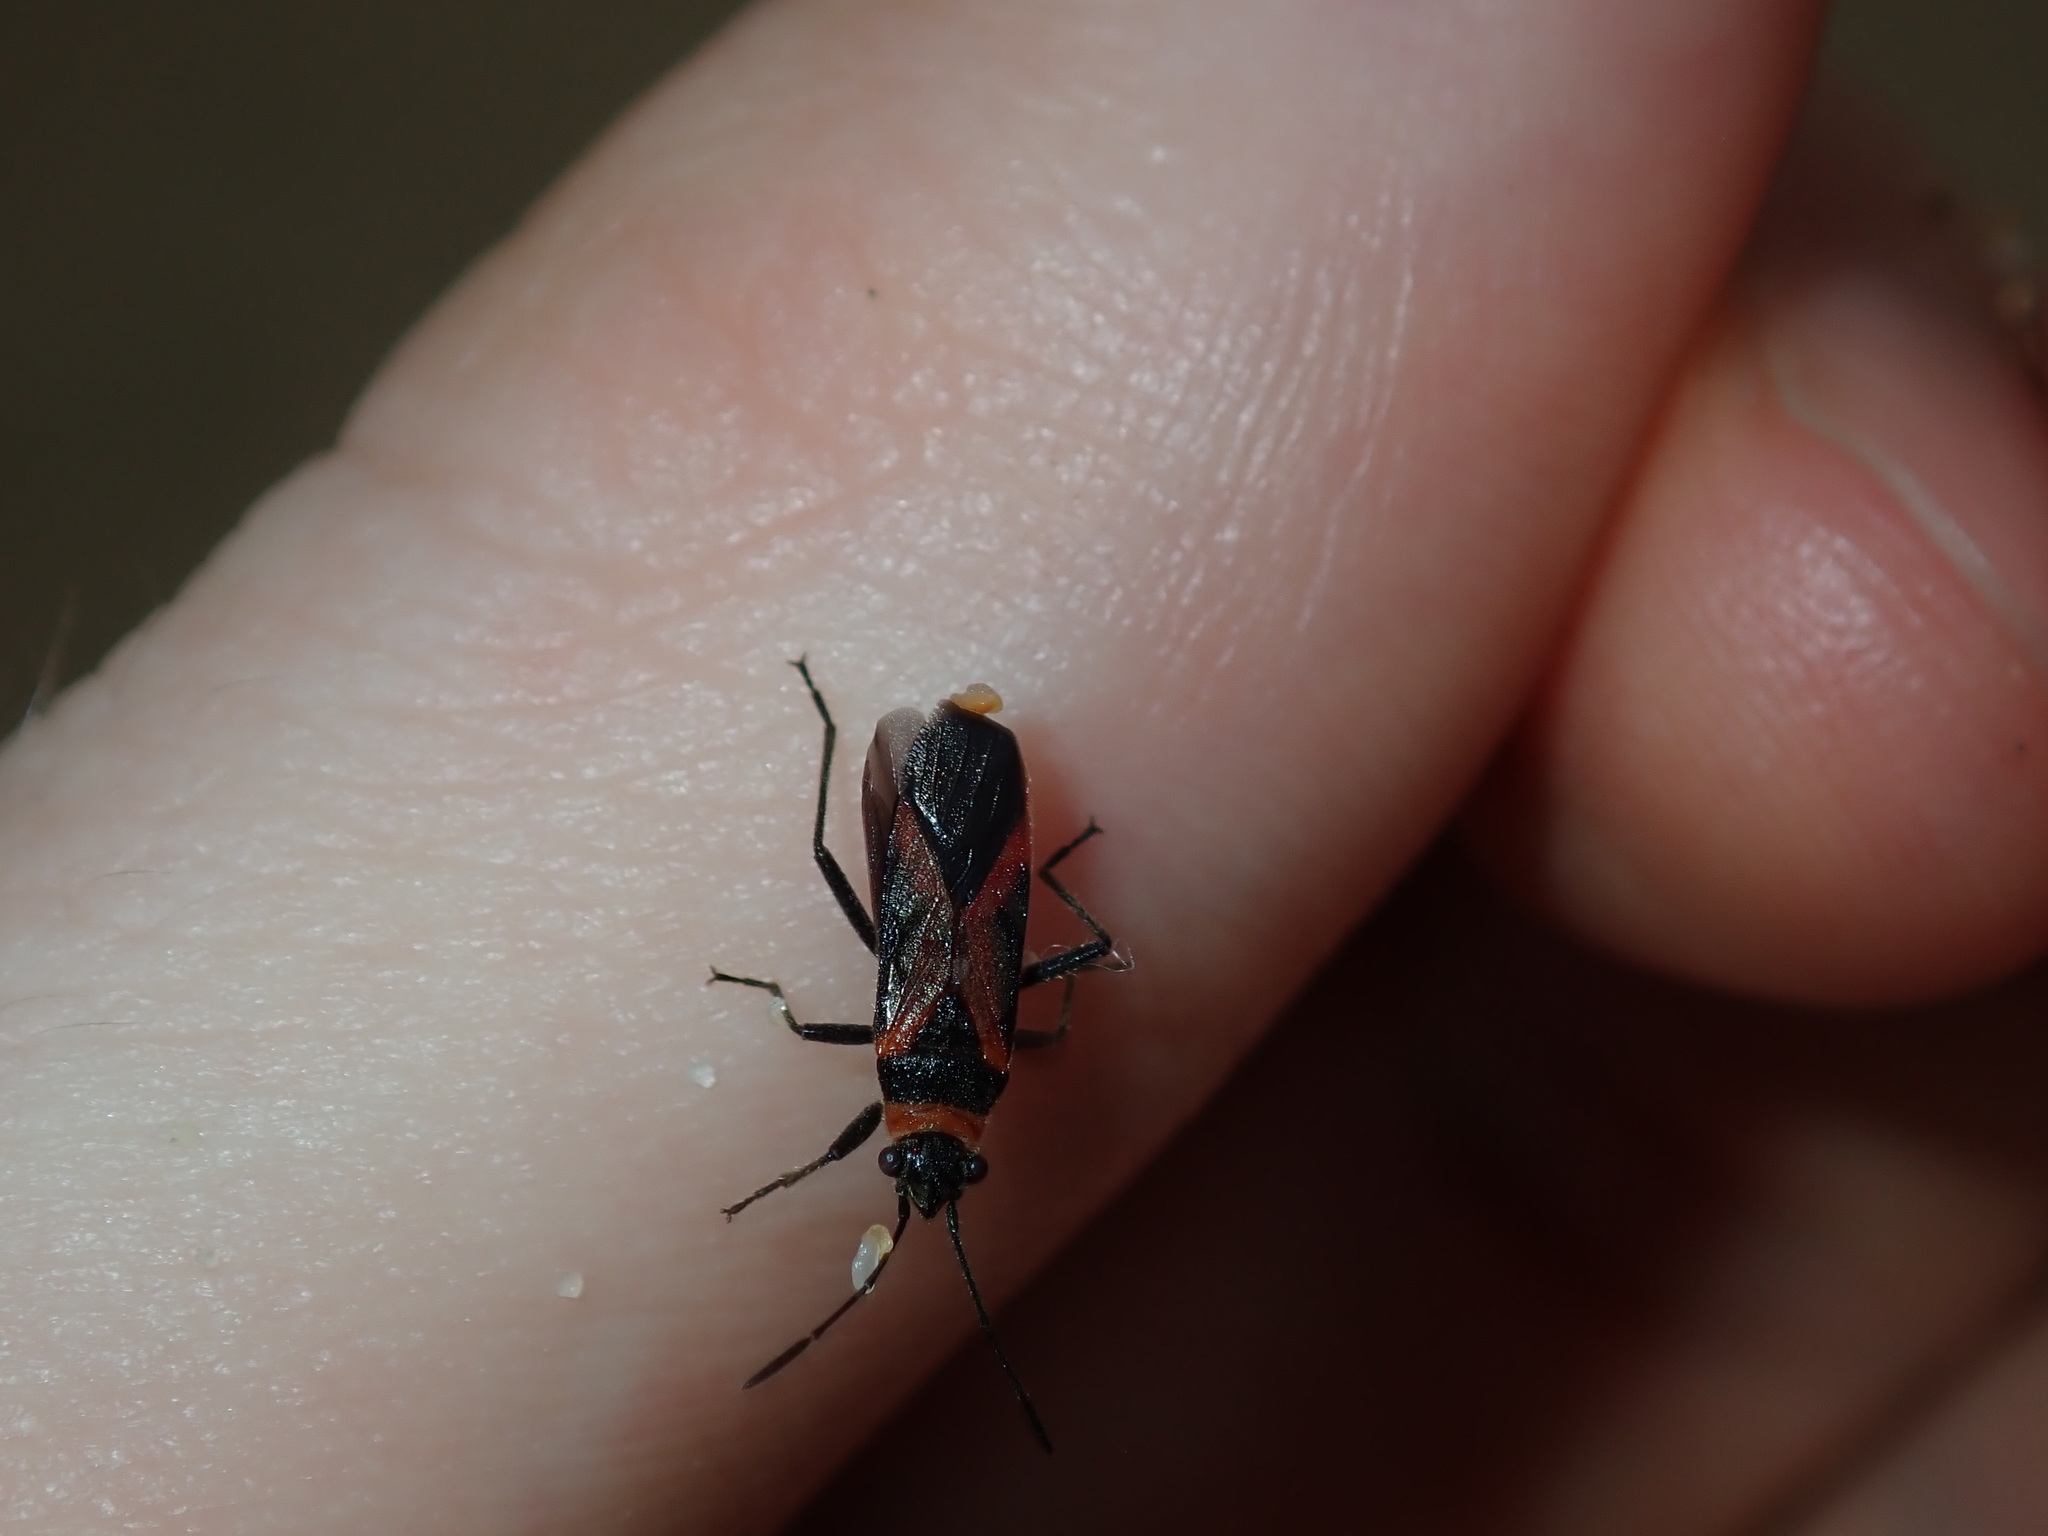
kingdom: Animalia
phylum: Arthropoda
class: Insecta
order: Hemiptera
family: Lygaeidae
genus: Arocatus
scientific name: Arocatus rusticus
